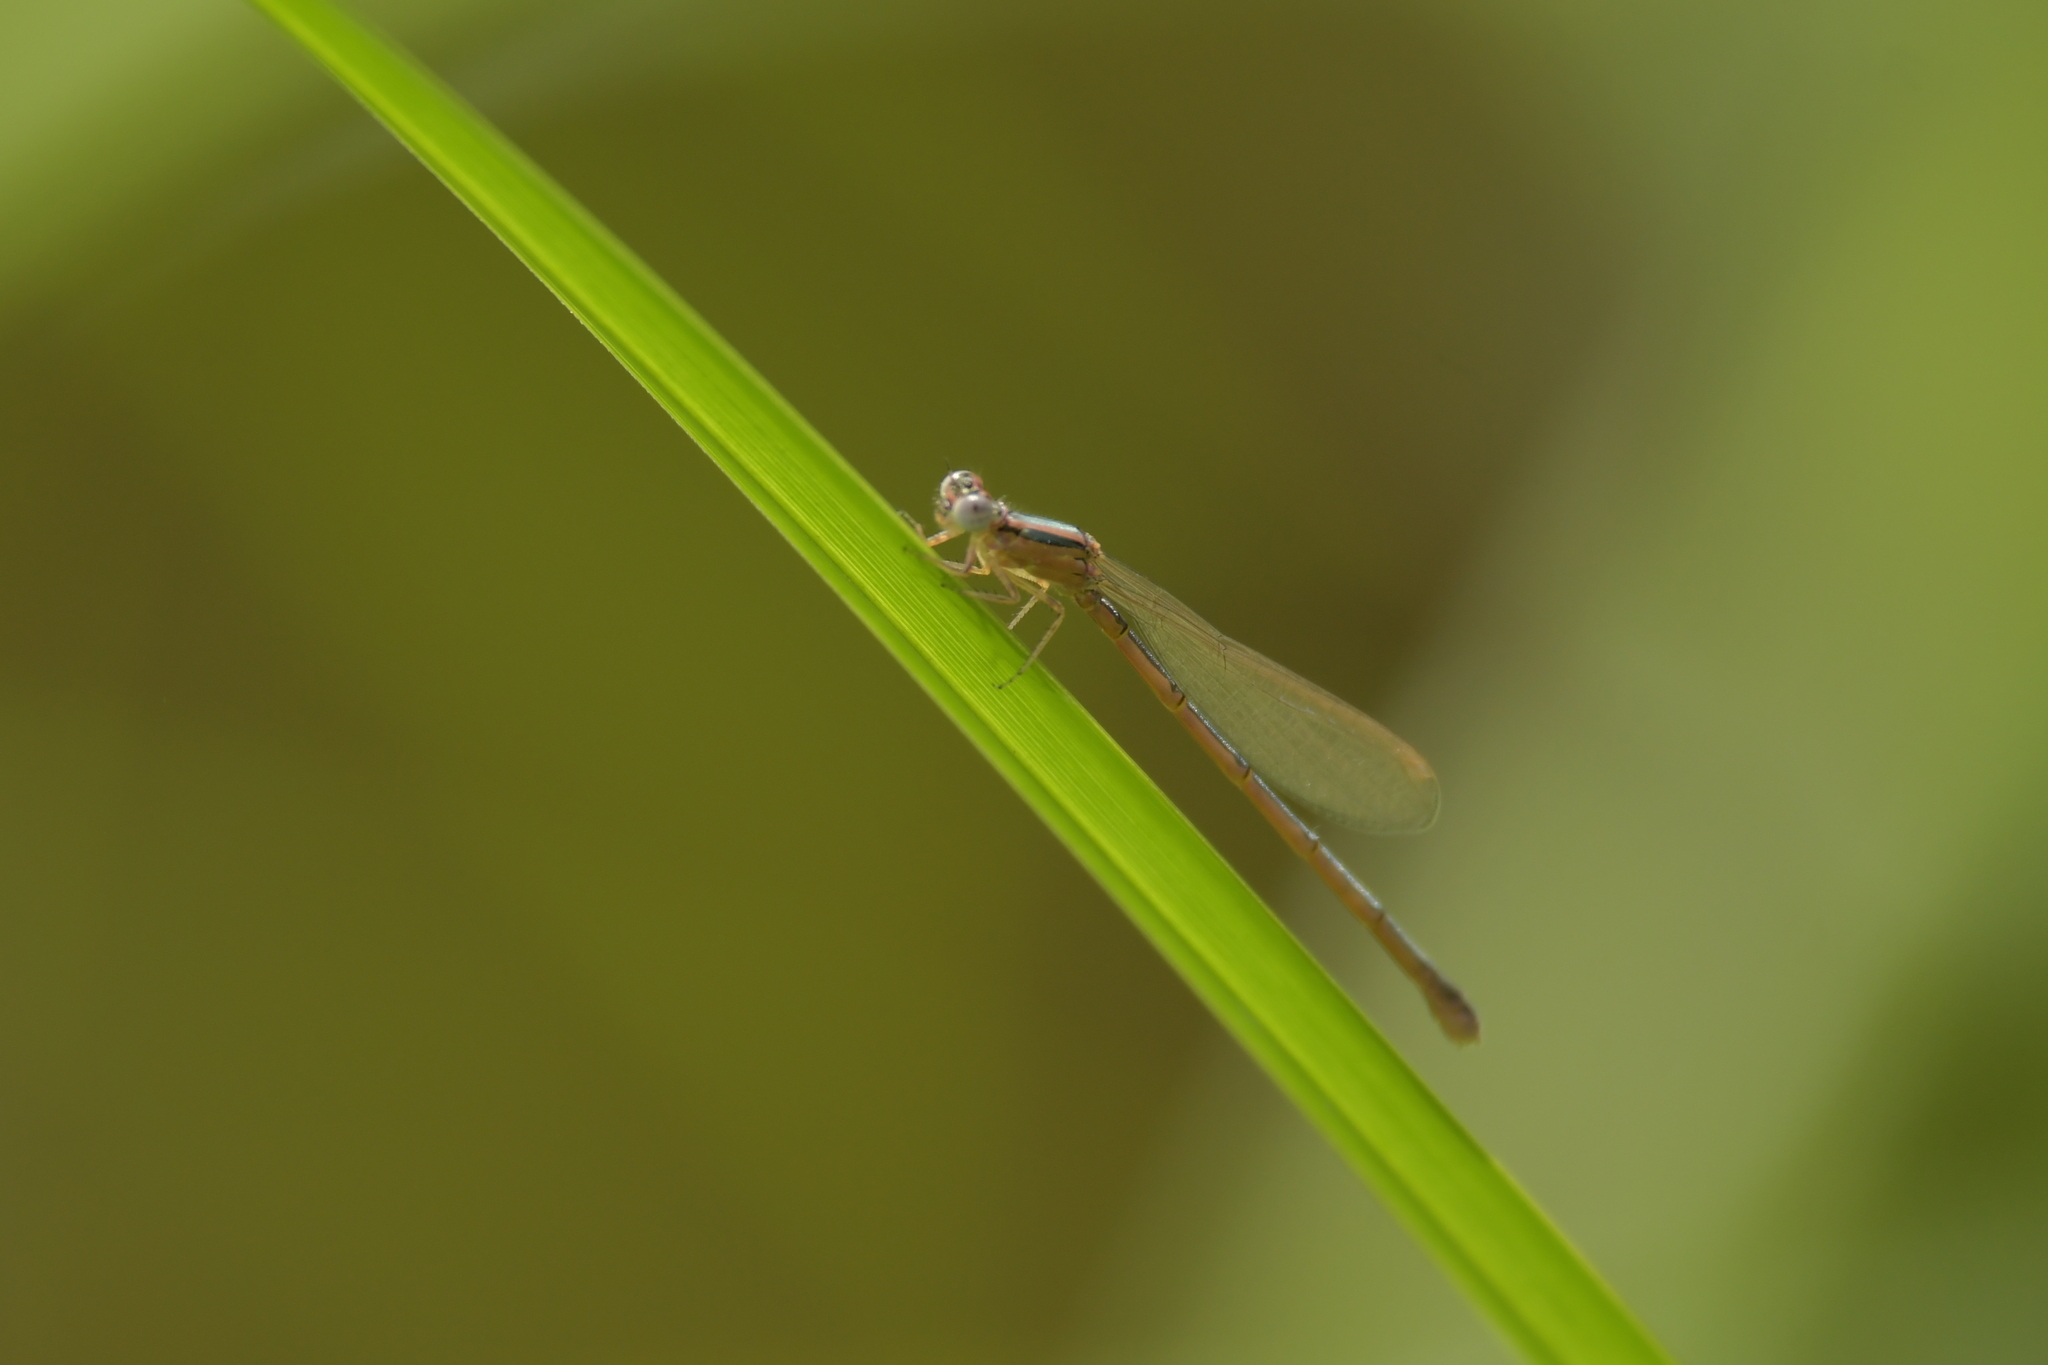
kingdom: Animalia
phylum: Arthropoda
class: Insecta
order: Odonata
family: Coenagrionidae
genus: Ischnura
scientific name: Ischnura aurora
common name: Gossamer damselfly
